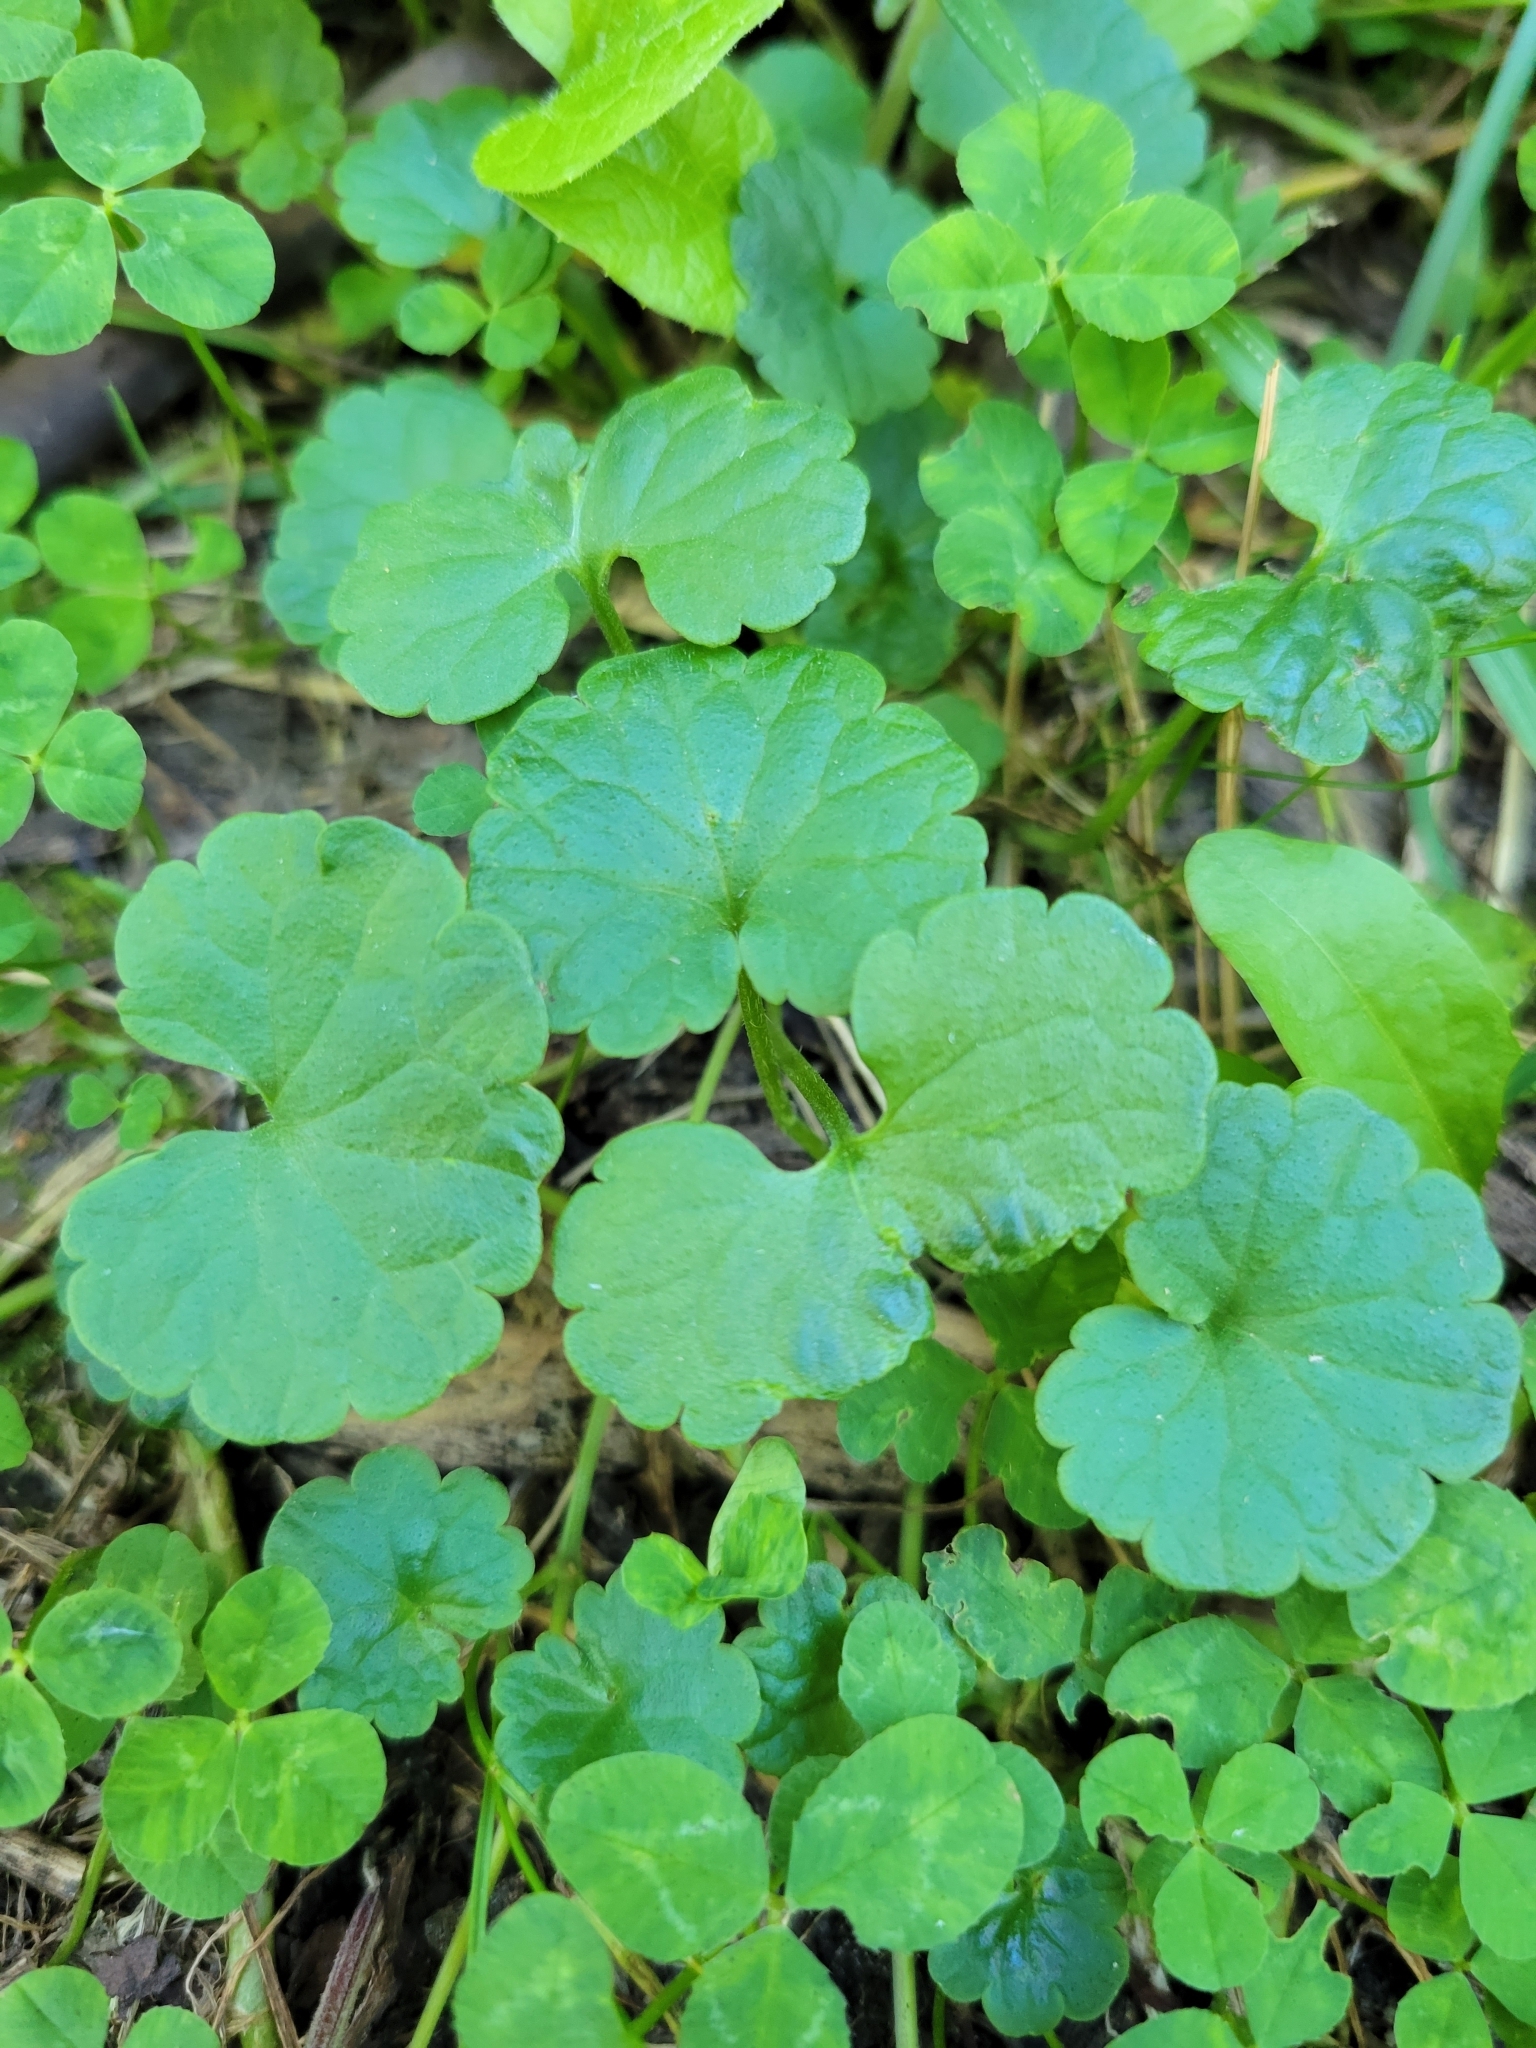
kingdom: Plantae
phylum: Tracheophyta
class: Magnoliopsida
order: Lamiales
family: Lamiaceae
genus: Glechoma
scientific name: Glechoma hederacea
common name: Ground ivy
